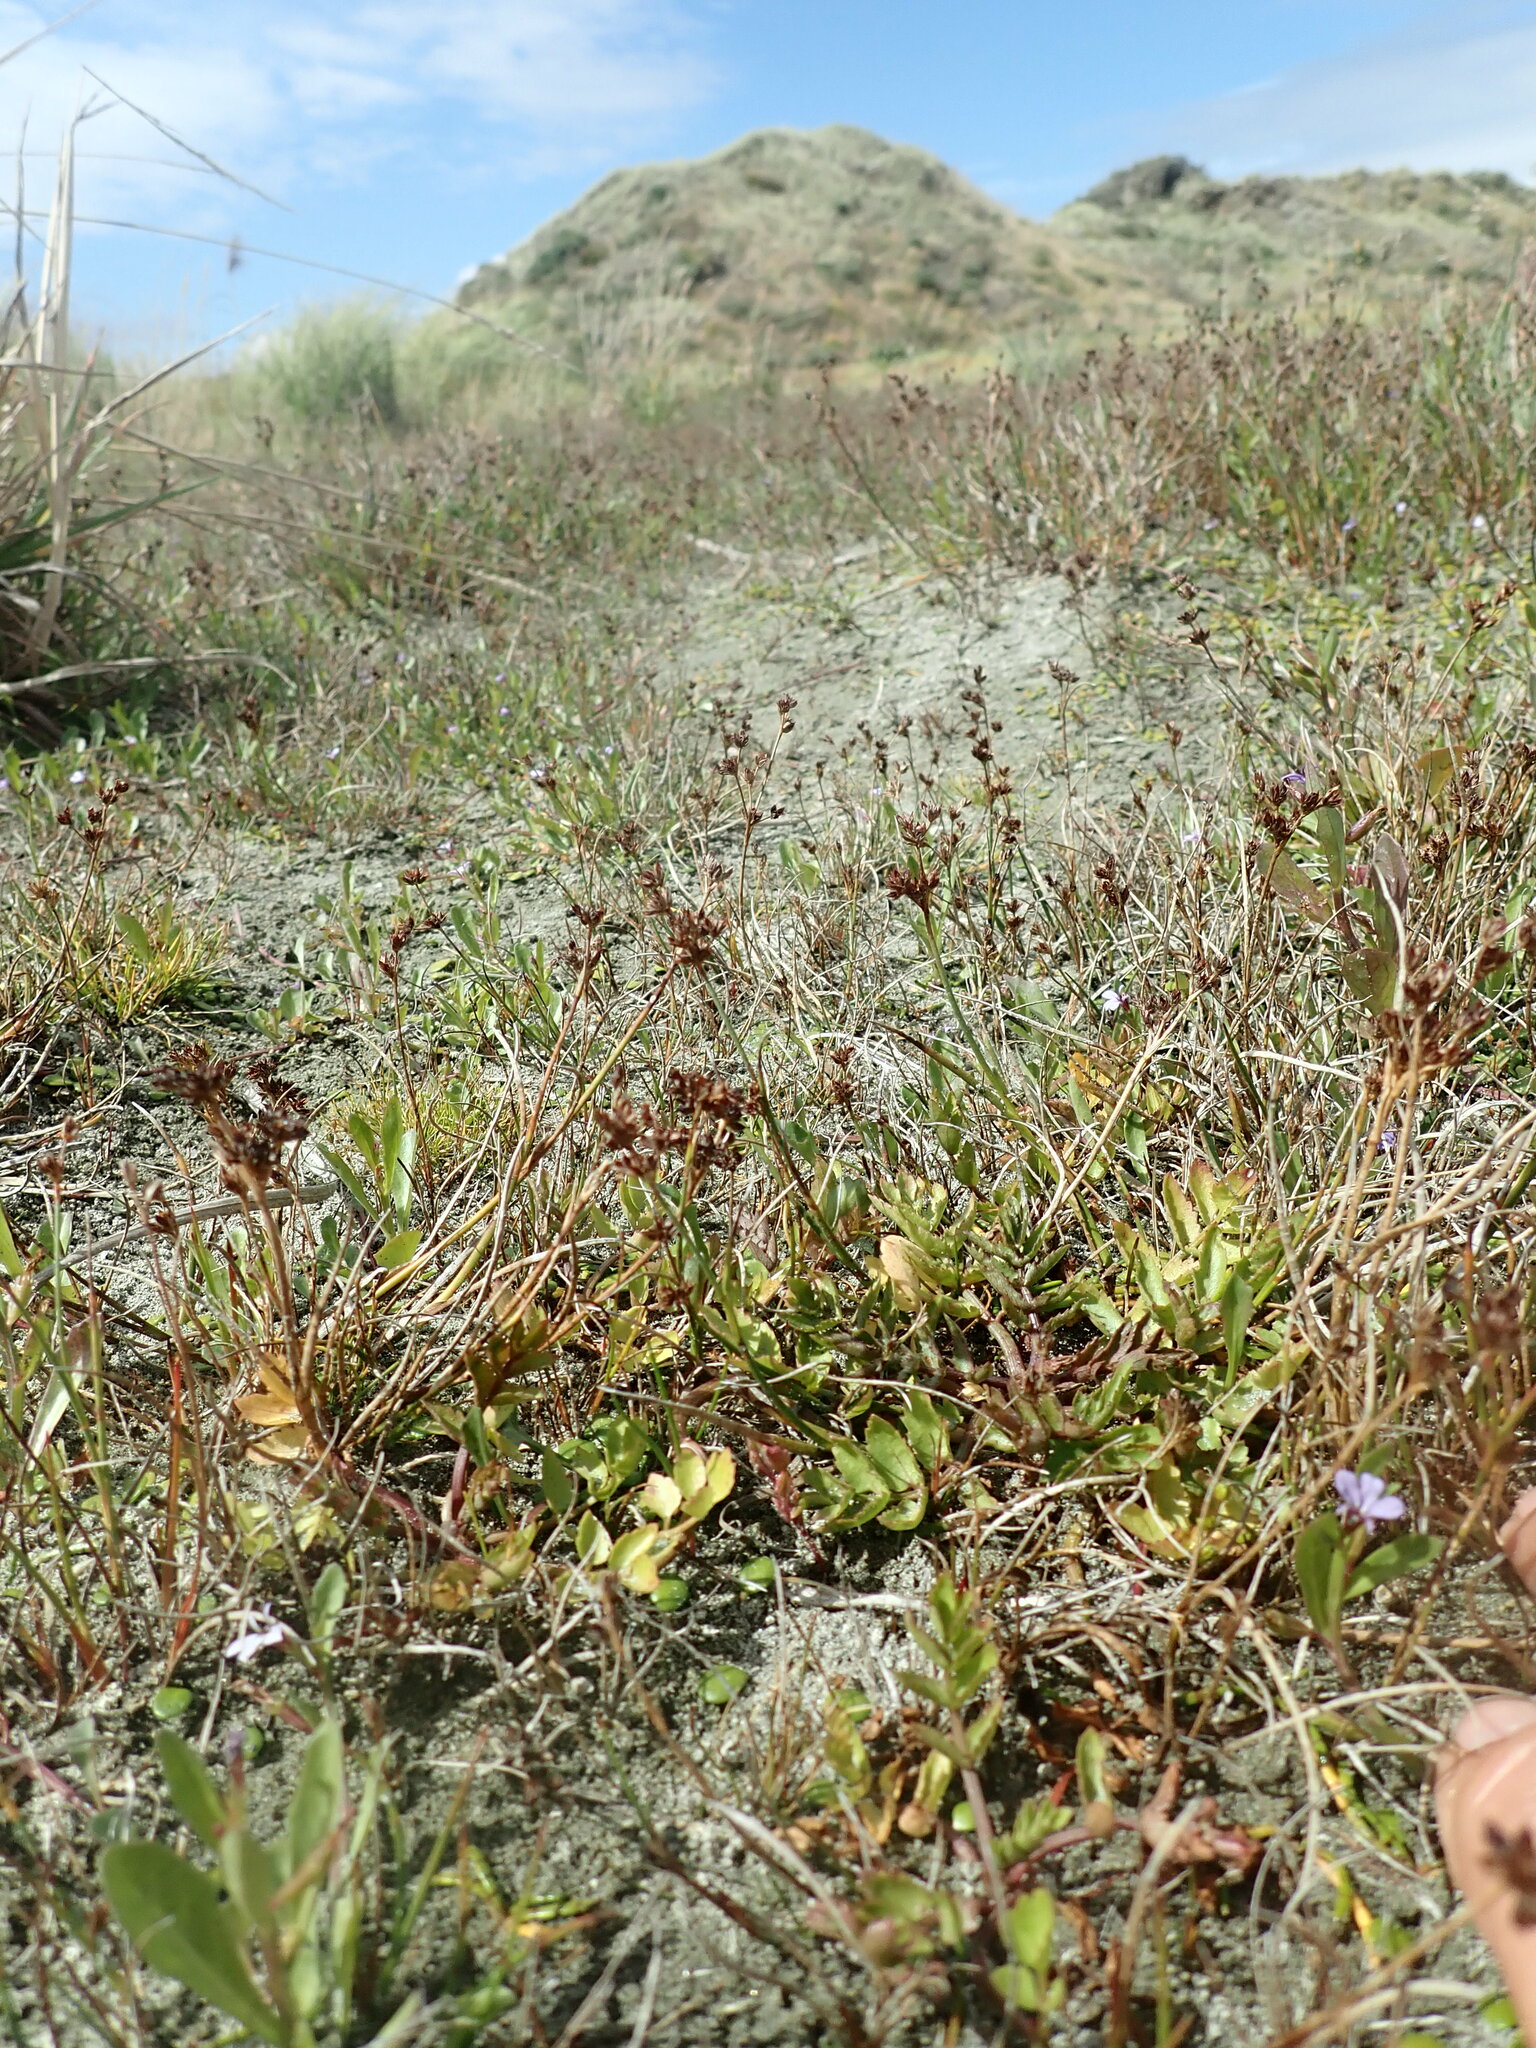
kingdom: Plantae
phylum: Tracheophyta
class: Magnoliopsida
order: Apiales
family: Apiaceae
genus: Helosciadium
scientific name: Helosciadium nodiflorum
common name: Fool's-watercress
